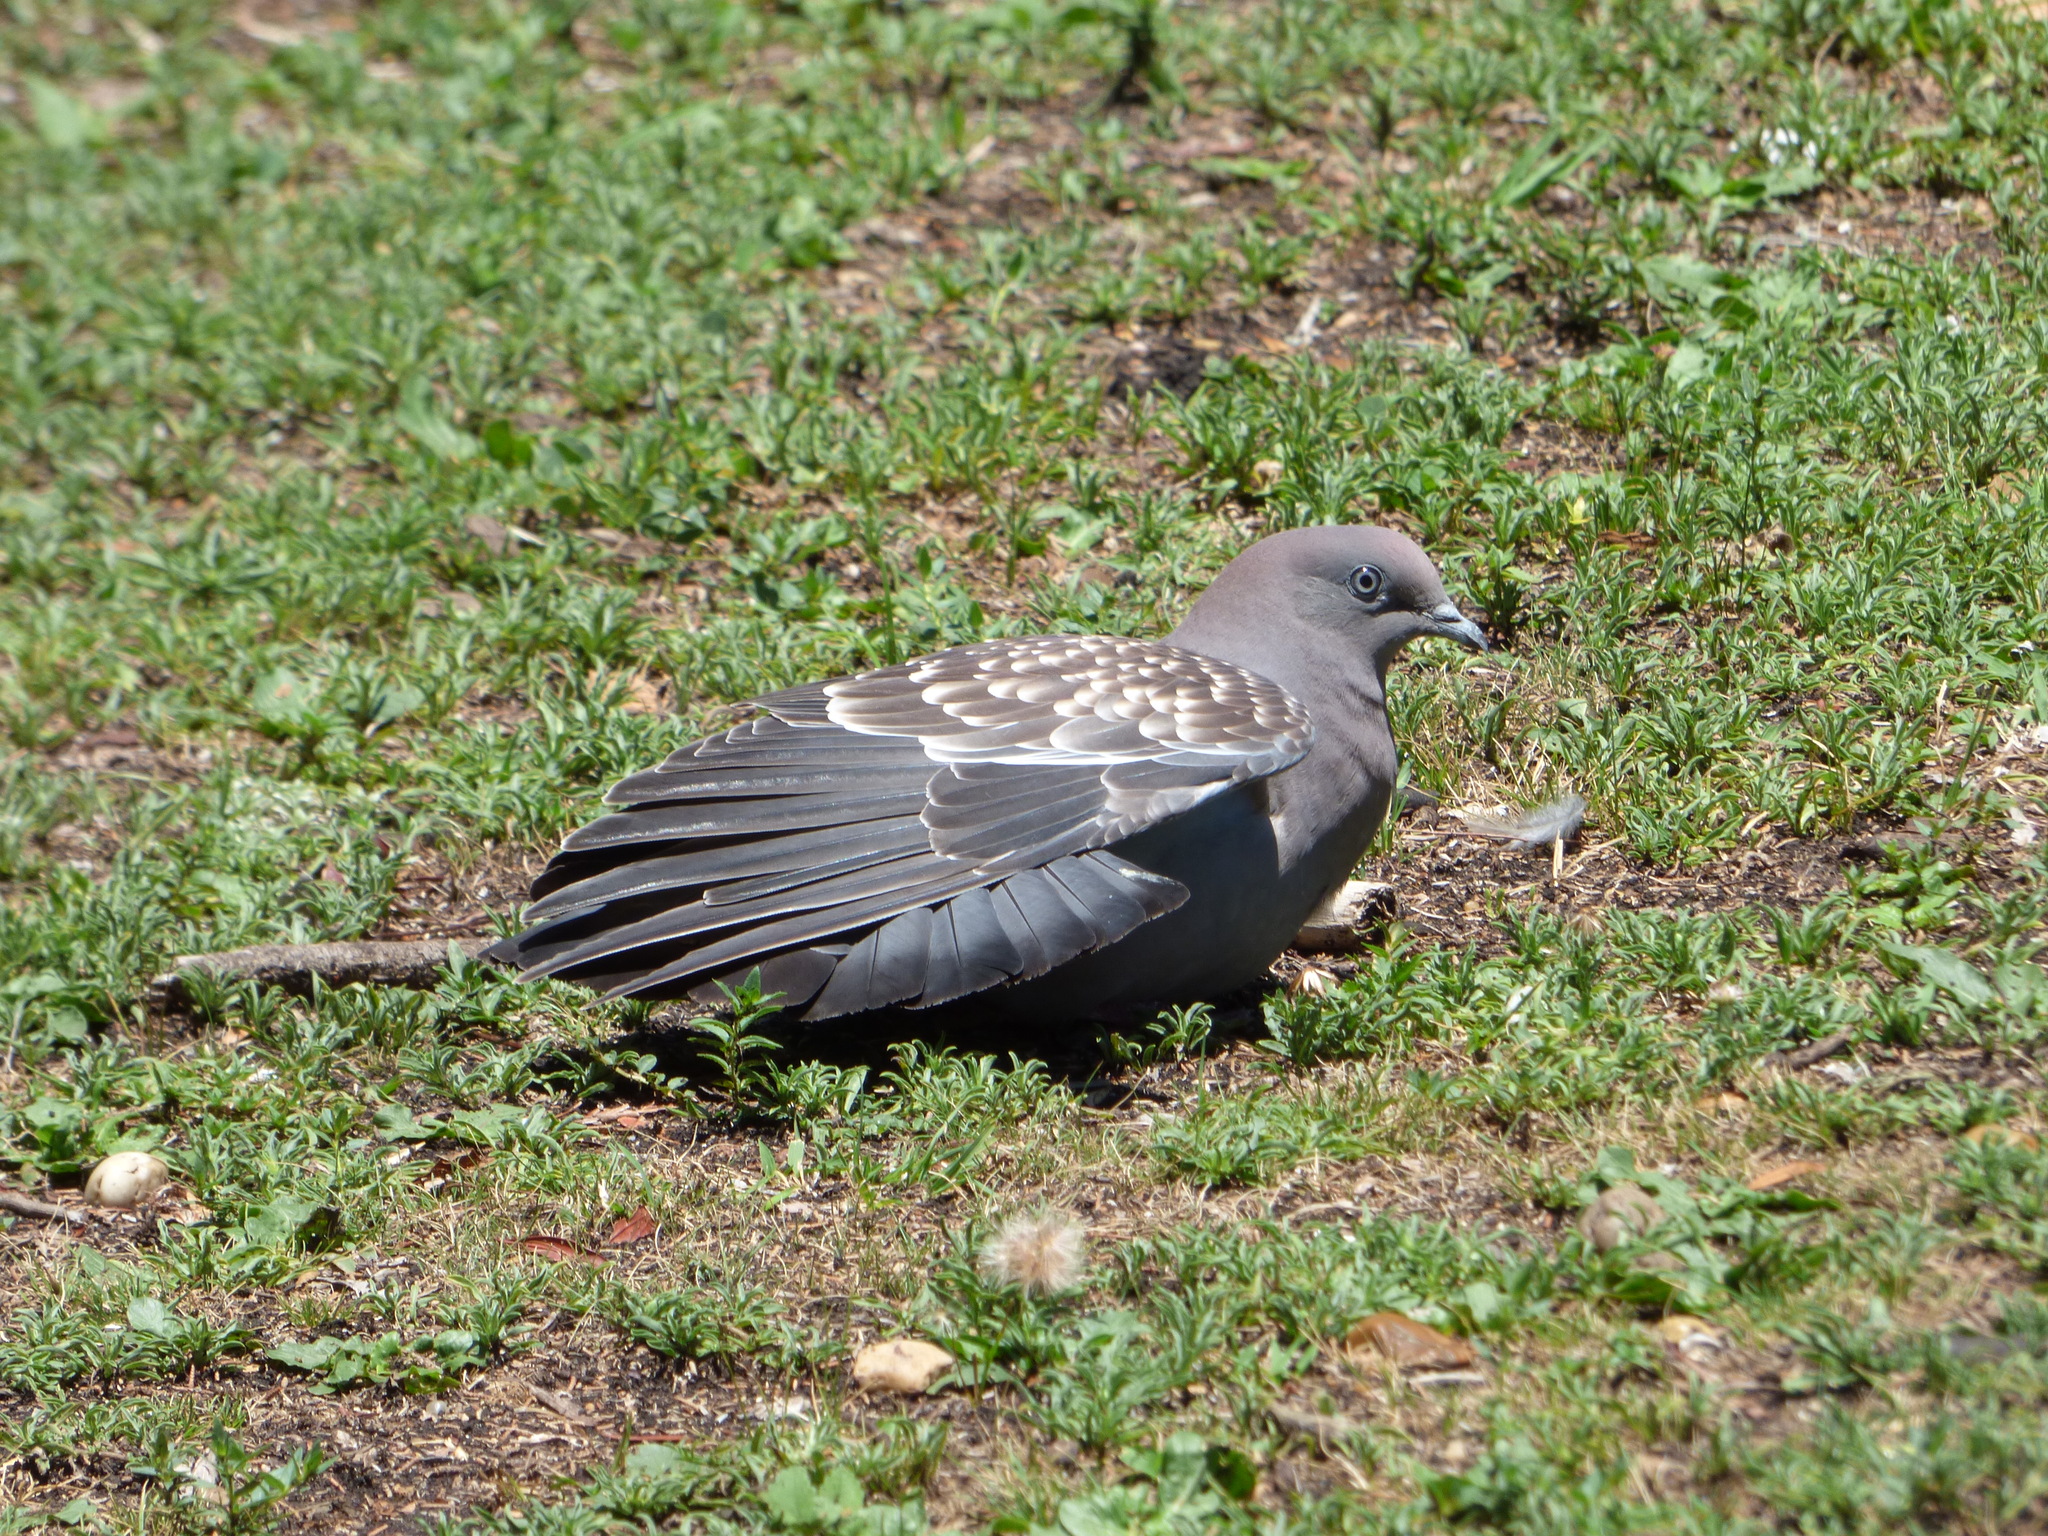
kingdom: Animalia
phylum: Chordata
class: Aves
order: Columbiformes
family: Columbidae
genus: Patagioenas
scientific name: Patagioenas maculosa
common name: Spot-winged pigeon
